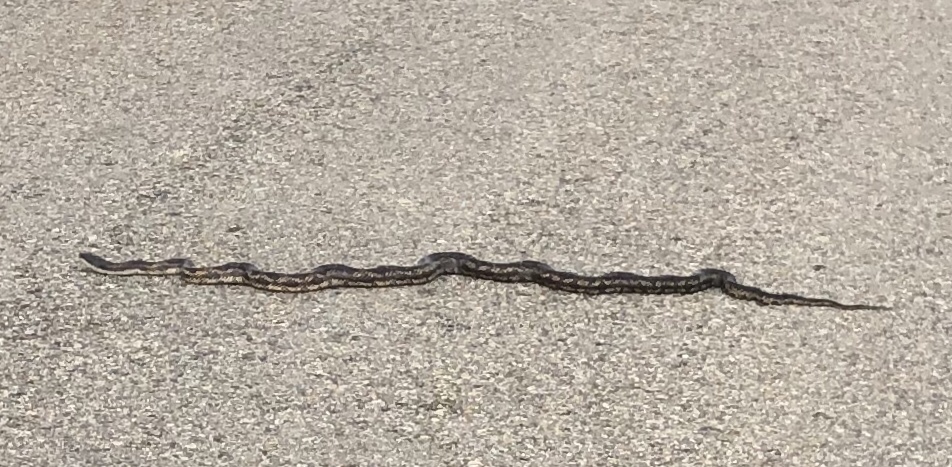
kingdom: Animalia
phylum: Chordata
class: Squamata
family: Colubridae
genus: Pantherophis
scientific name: Pantherophis obsoletus
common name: Black rat snake
